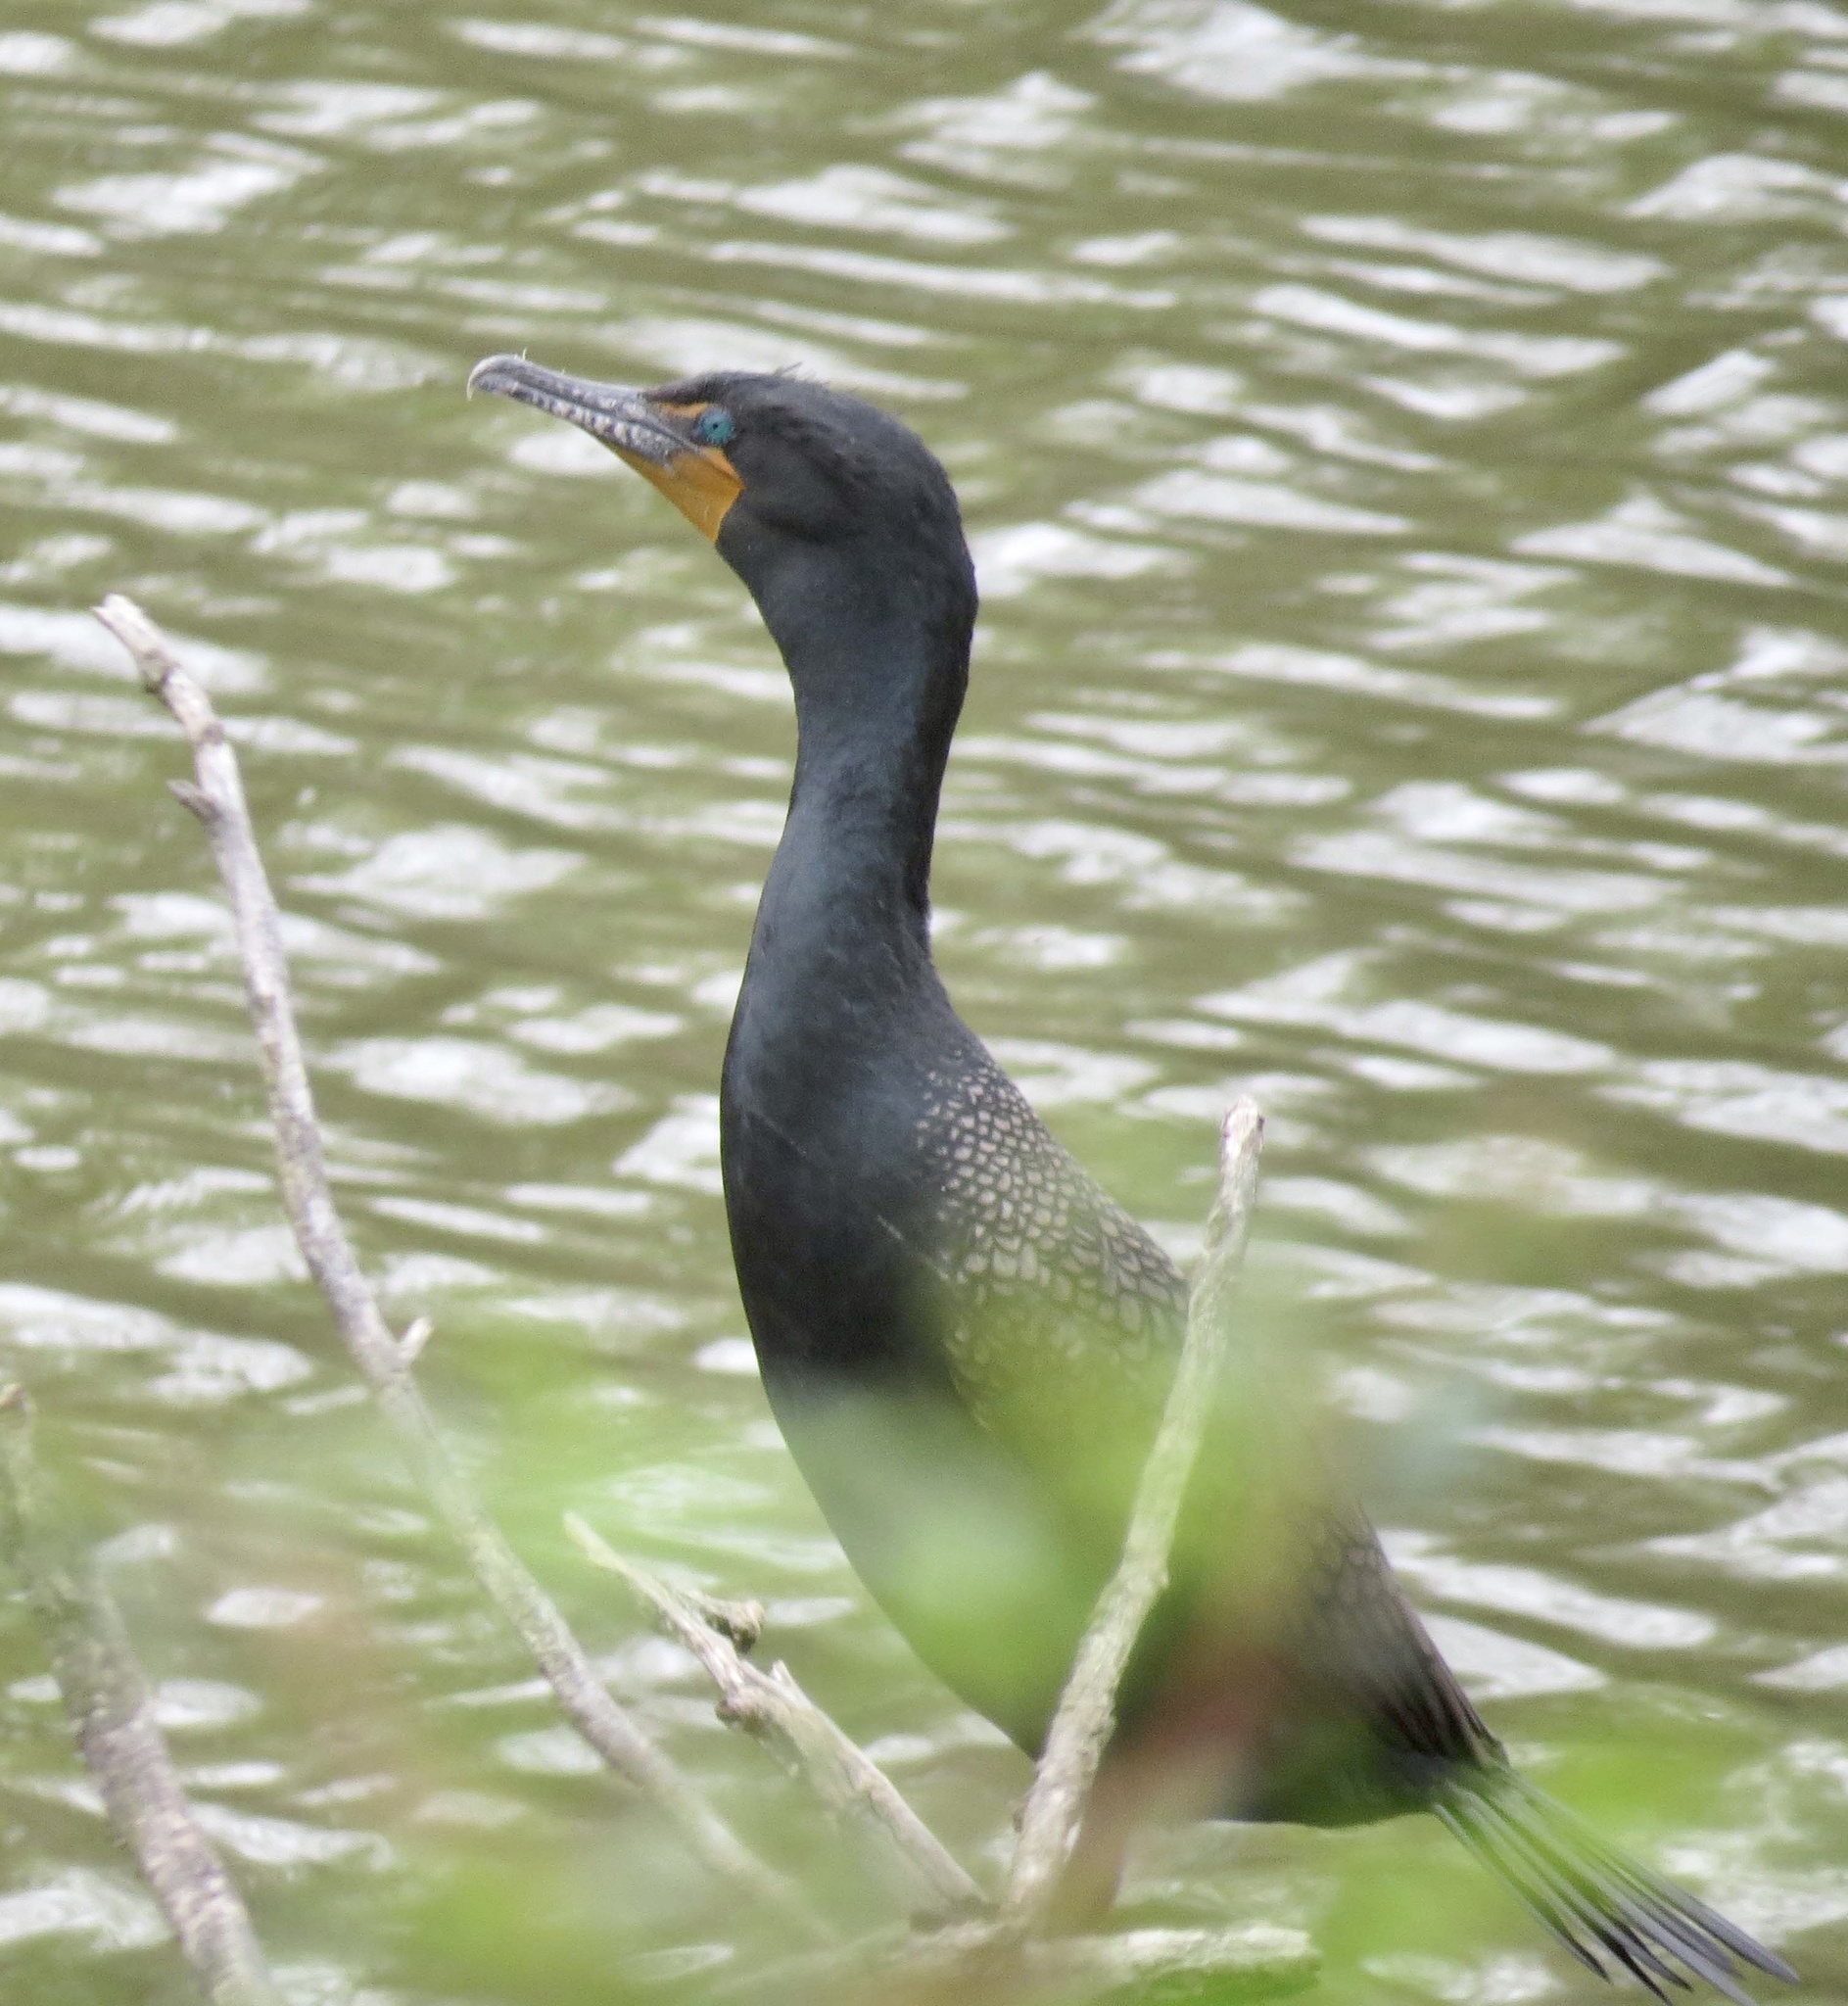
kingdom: Animalia
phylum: Chordata
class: Aves
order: Suliformes
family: Phalacrocoracidae
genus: Phalacrocorax
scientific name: Phalacrocorax auritus
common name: Double-crested cormorant
